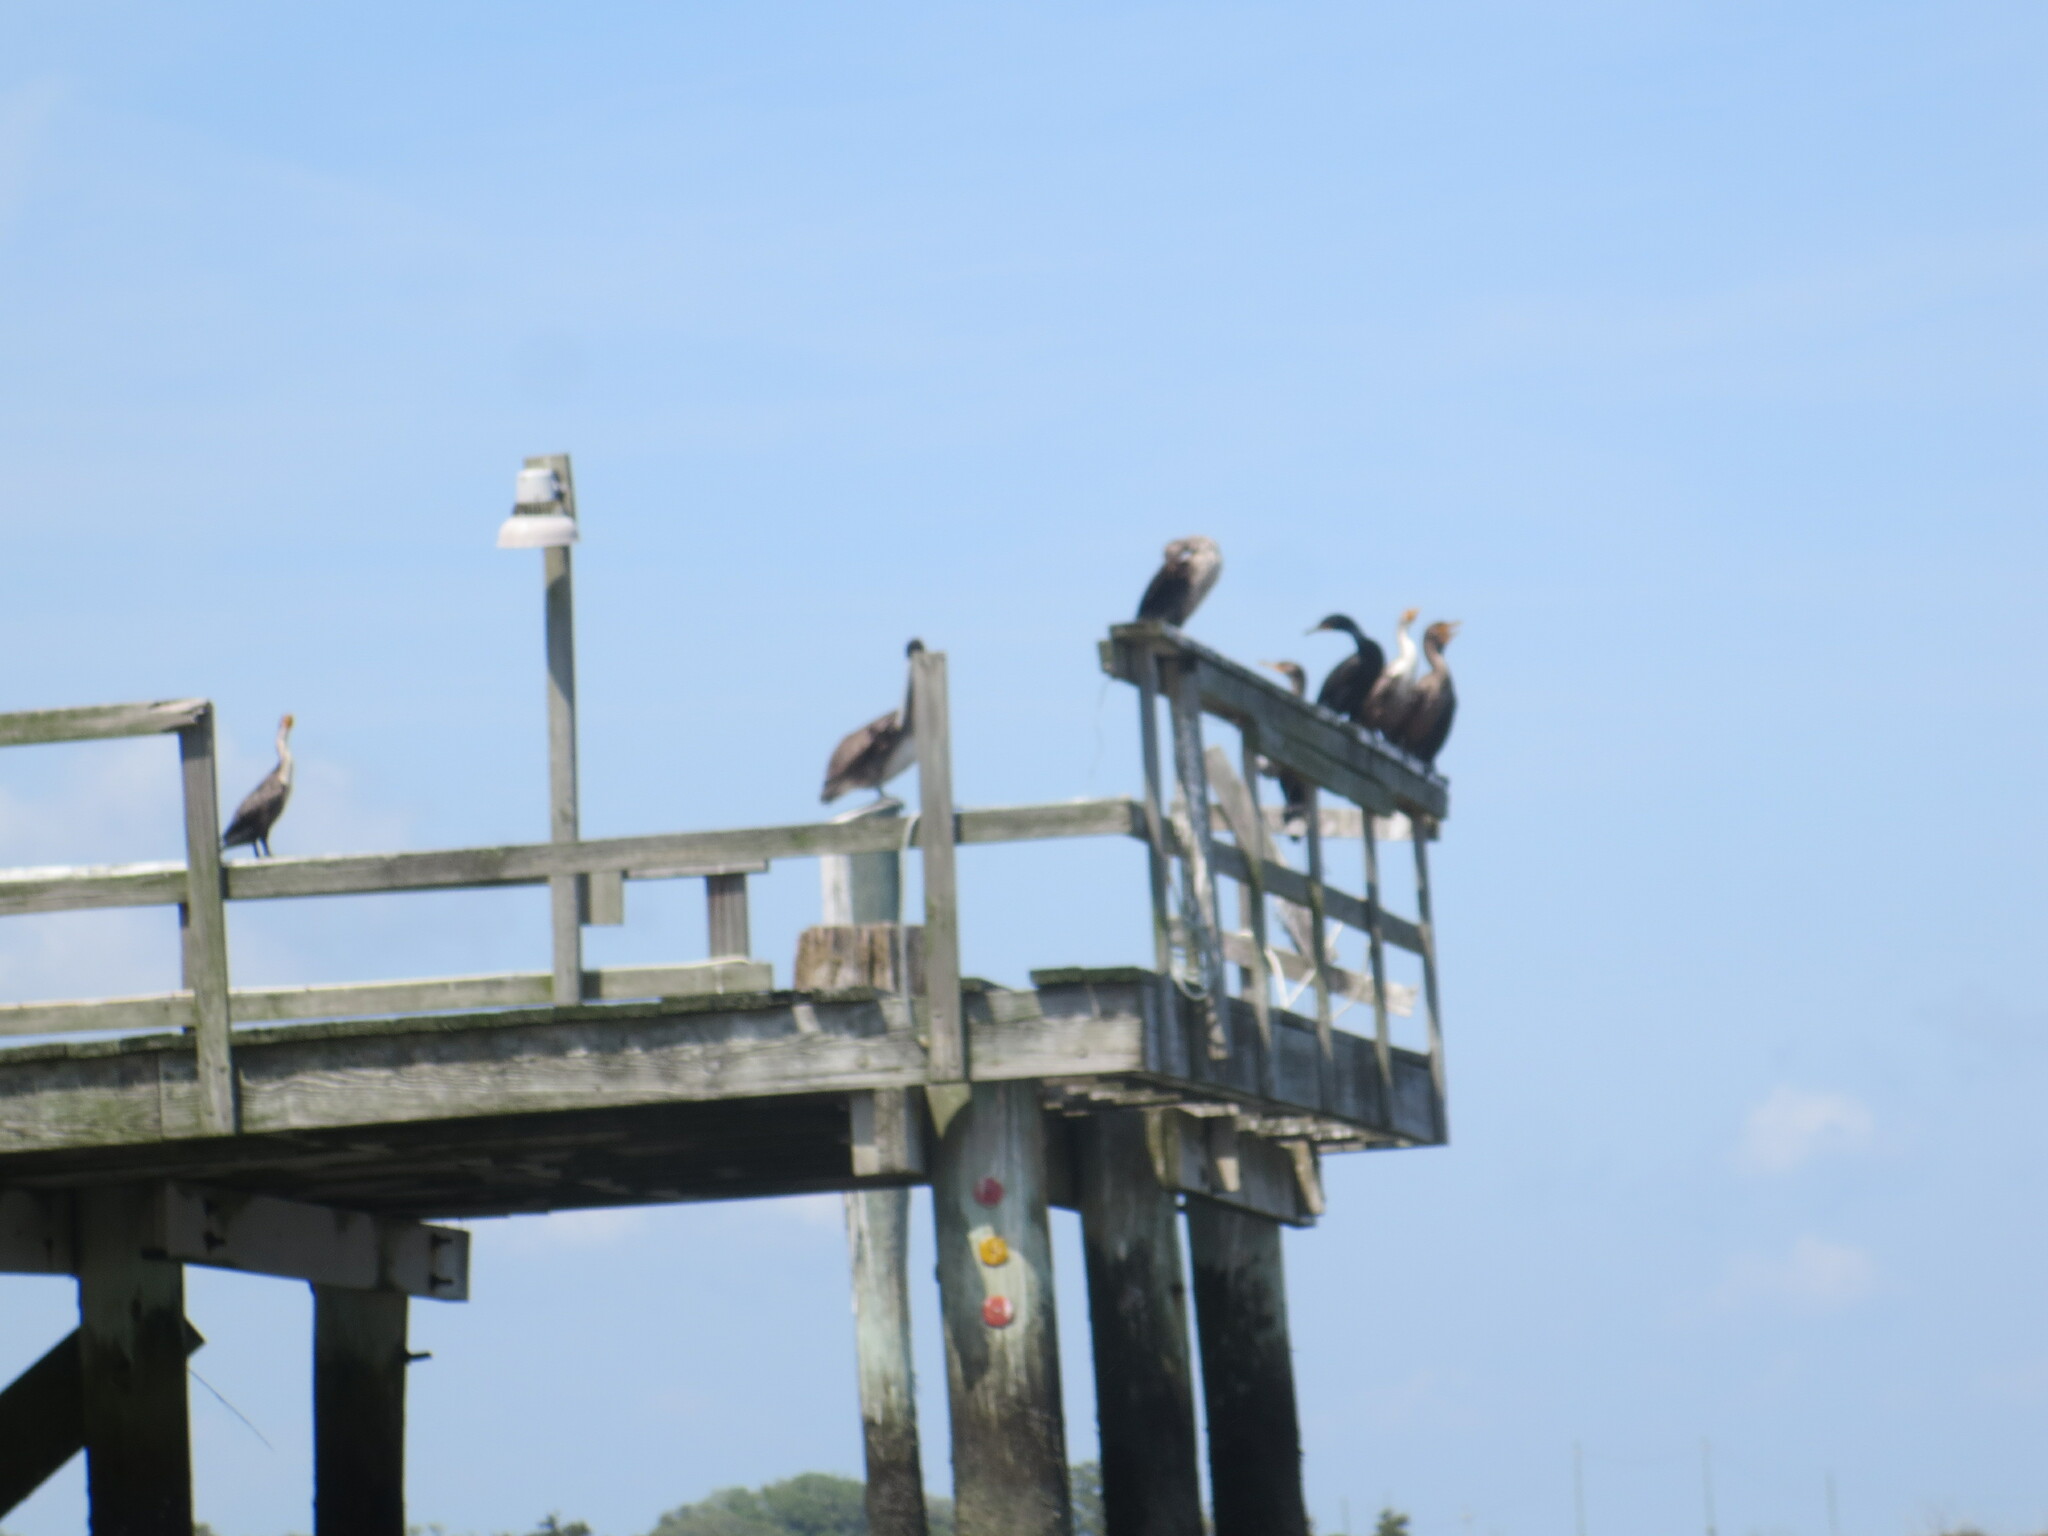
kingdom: Animalia
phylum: Chordata
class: Aves
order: Suliformes
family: Phalacrocoracidae
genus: Phalacrocorax
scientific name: Phalacrocorax auritus
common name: Double-crested cormorant
